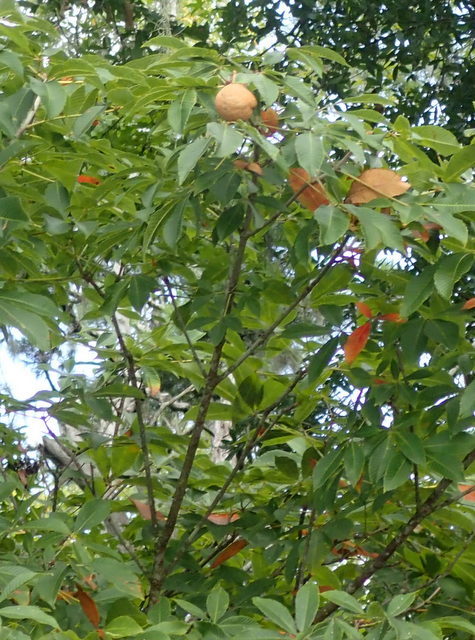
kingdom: Plantae
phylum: Tracheophyta
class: Magnoliopsida
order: Sapindales
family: Sapindaceae
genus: Aesculus
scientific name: Aesculus pavia
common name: Red buckeye
